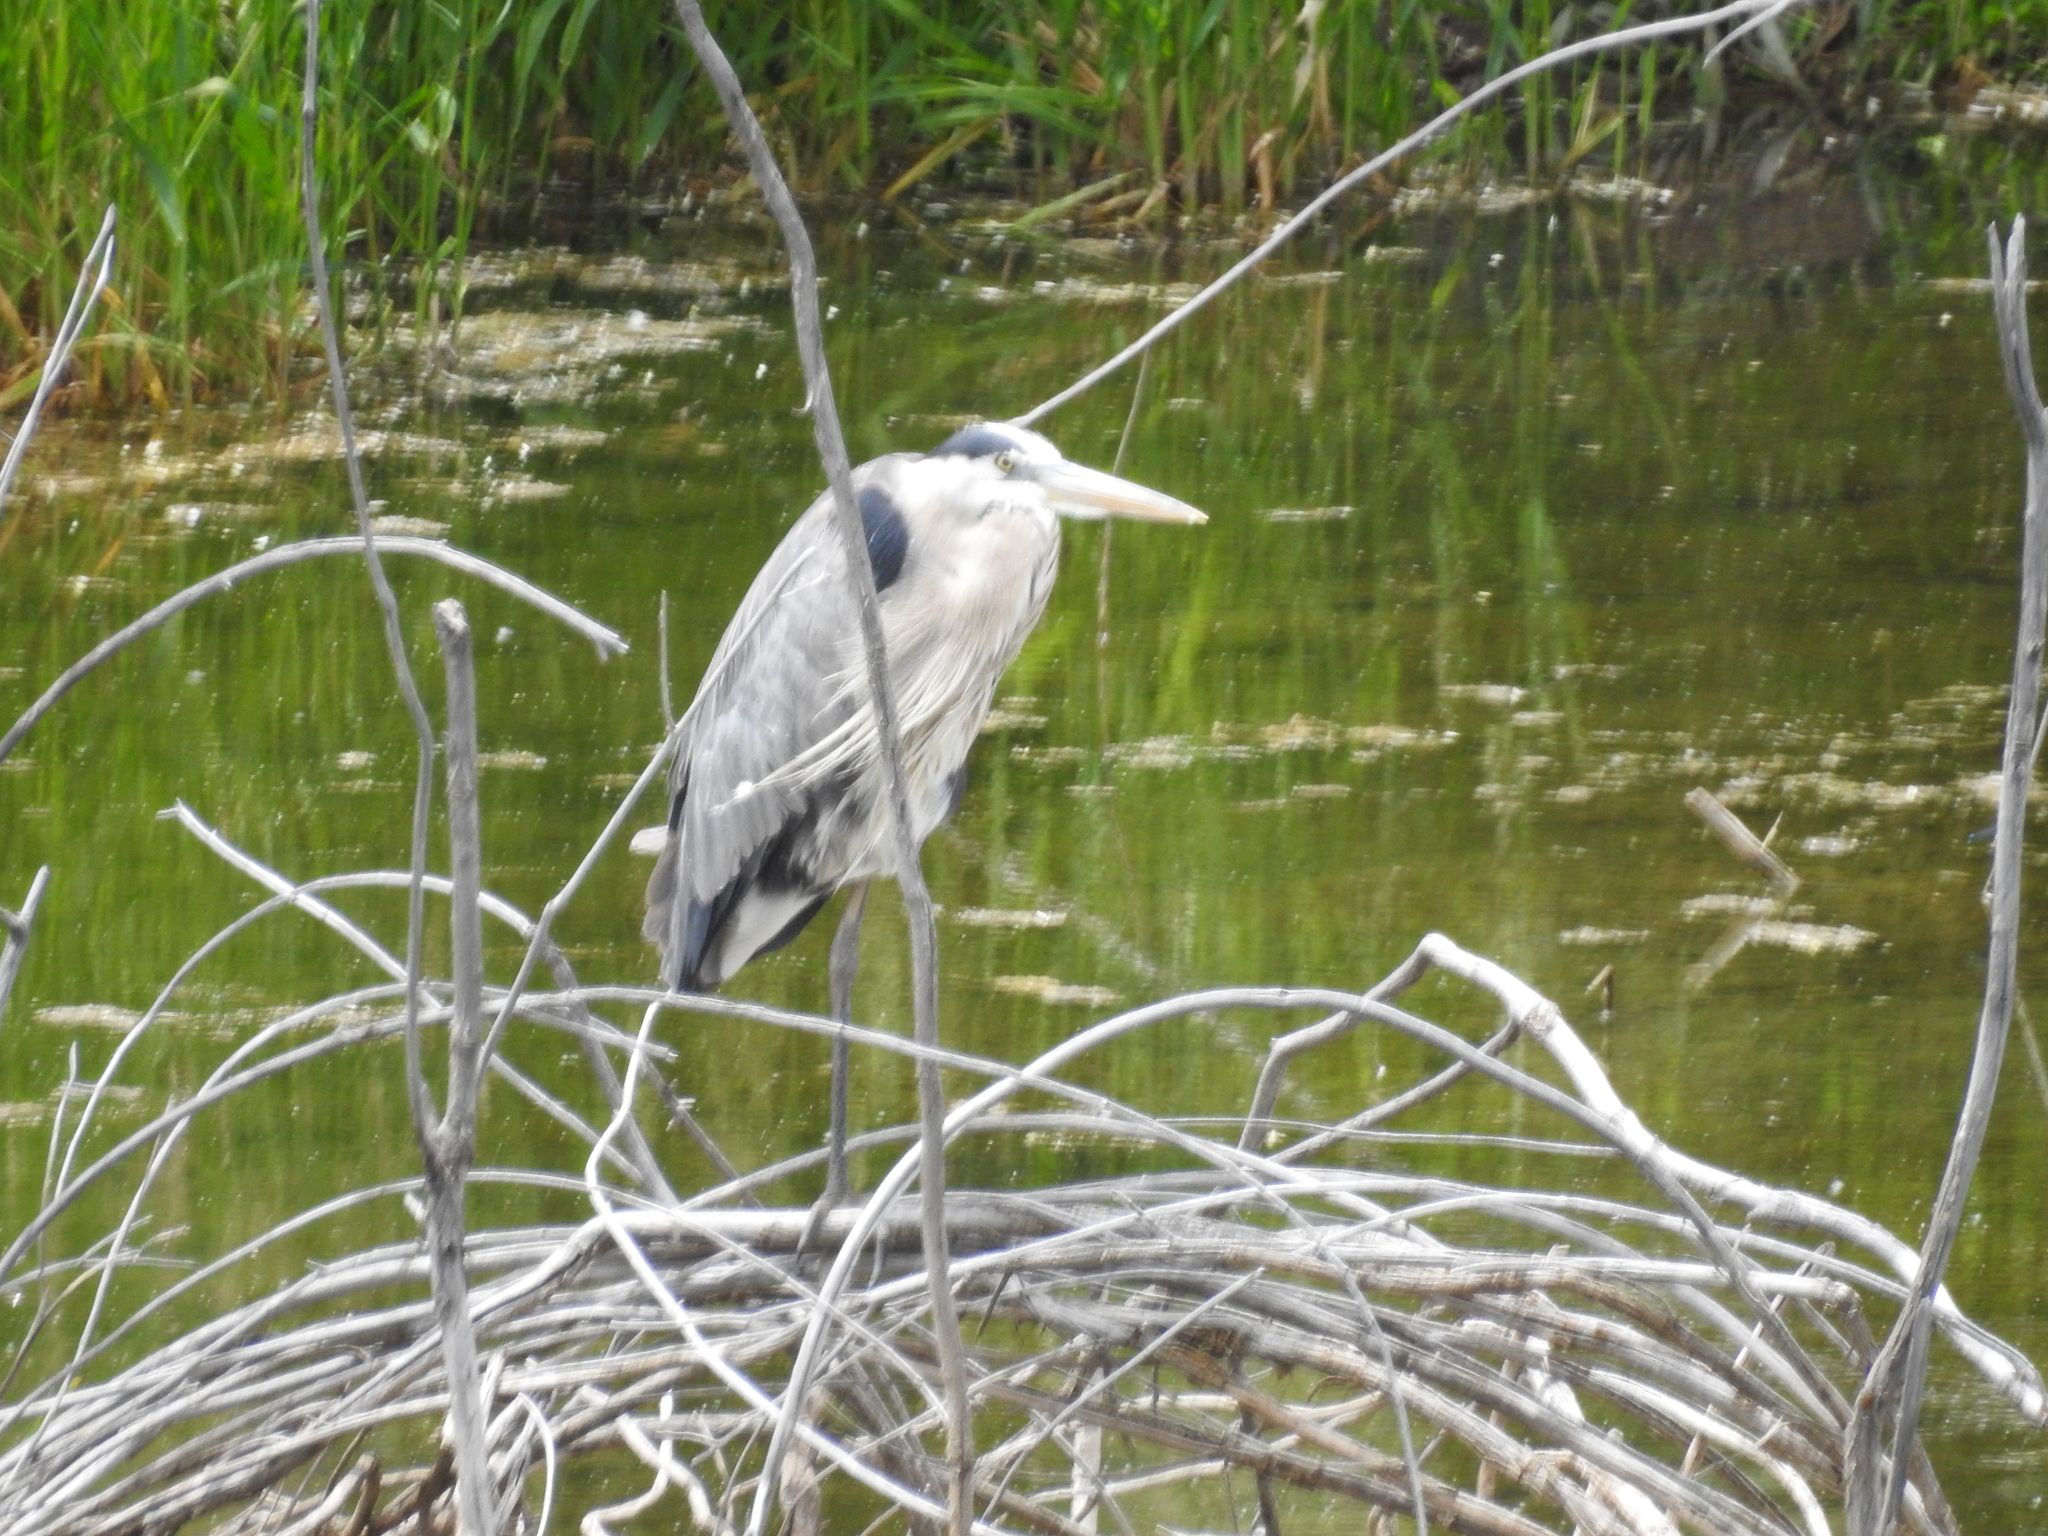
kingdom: Animalia
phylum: Chordata
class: Aves
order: Pelecaniformes
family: Ardeidae
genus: Ardea
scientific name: Ardea herodias
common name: Great blue heron
